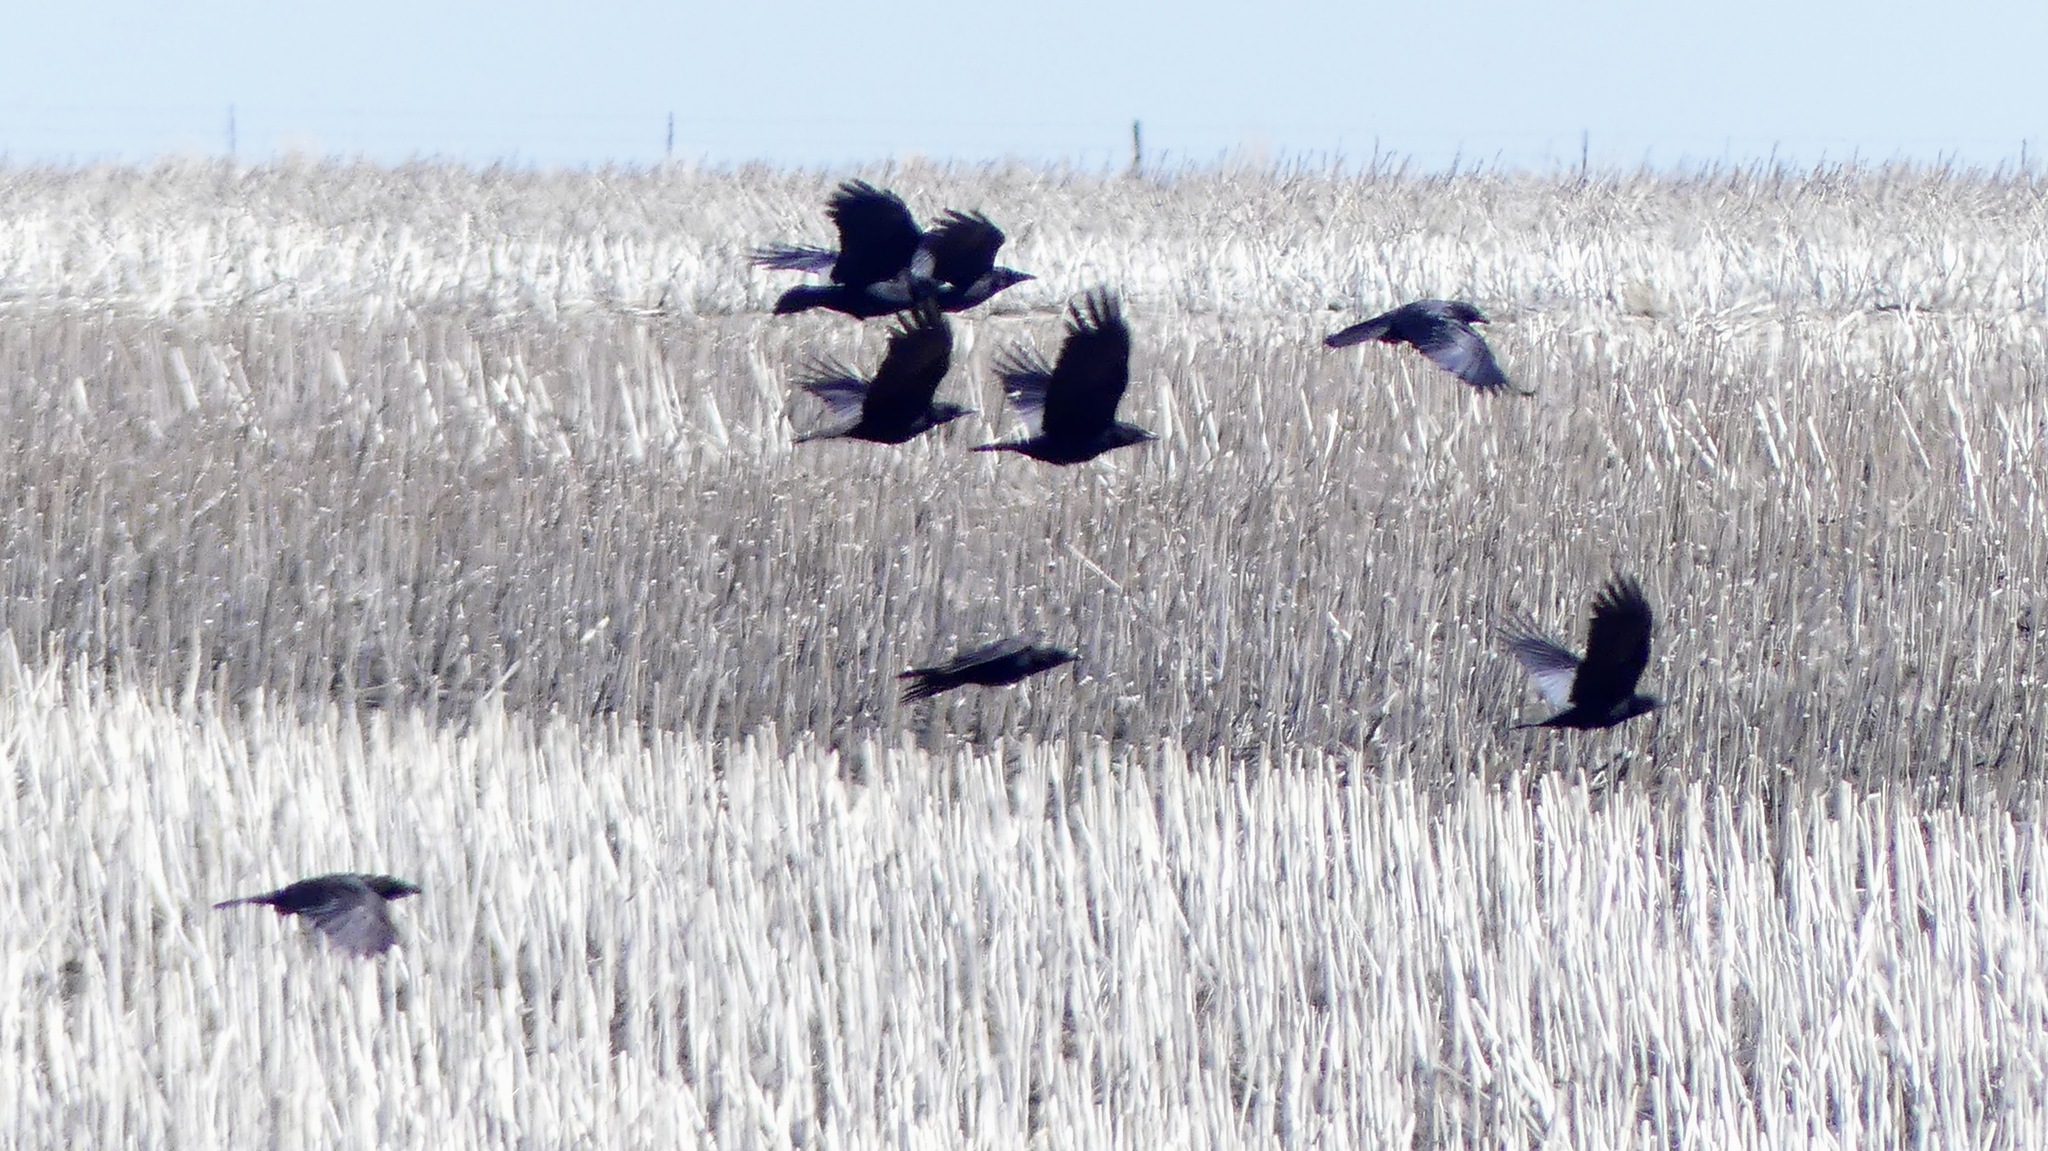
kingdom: Animalia
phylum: Chordata
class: Aves
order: Passeriformes
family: Corvidae
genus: Corvus
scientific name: Corvus brachyrhynchos
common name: American crow
